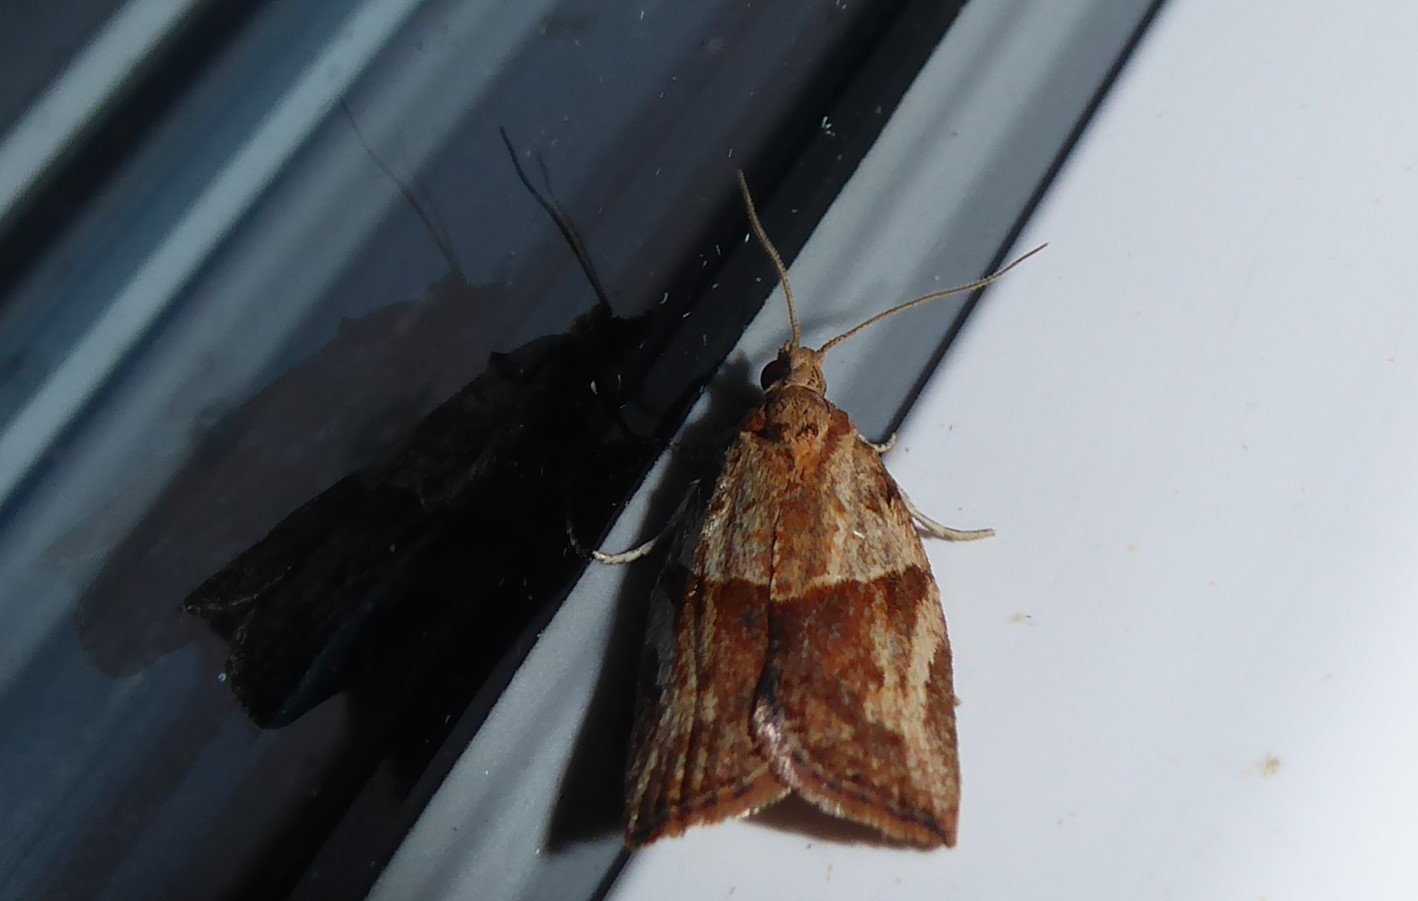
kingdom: Animalia
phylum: Arthropoda
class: Insecta
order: Lepidoptera
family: Tortricidae
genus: Epiphyas
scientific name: Epiphyas postvittana
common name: Light brown apple moth
